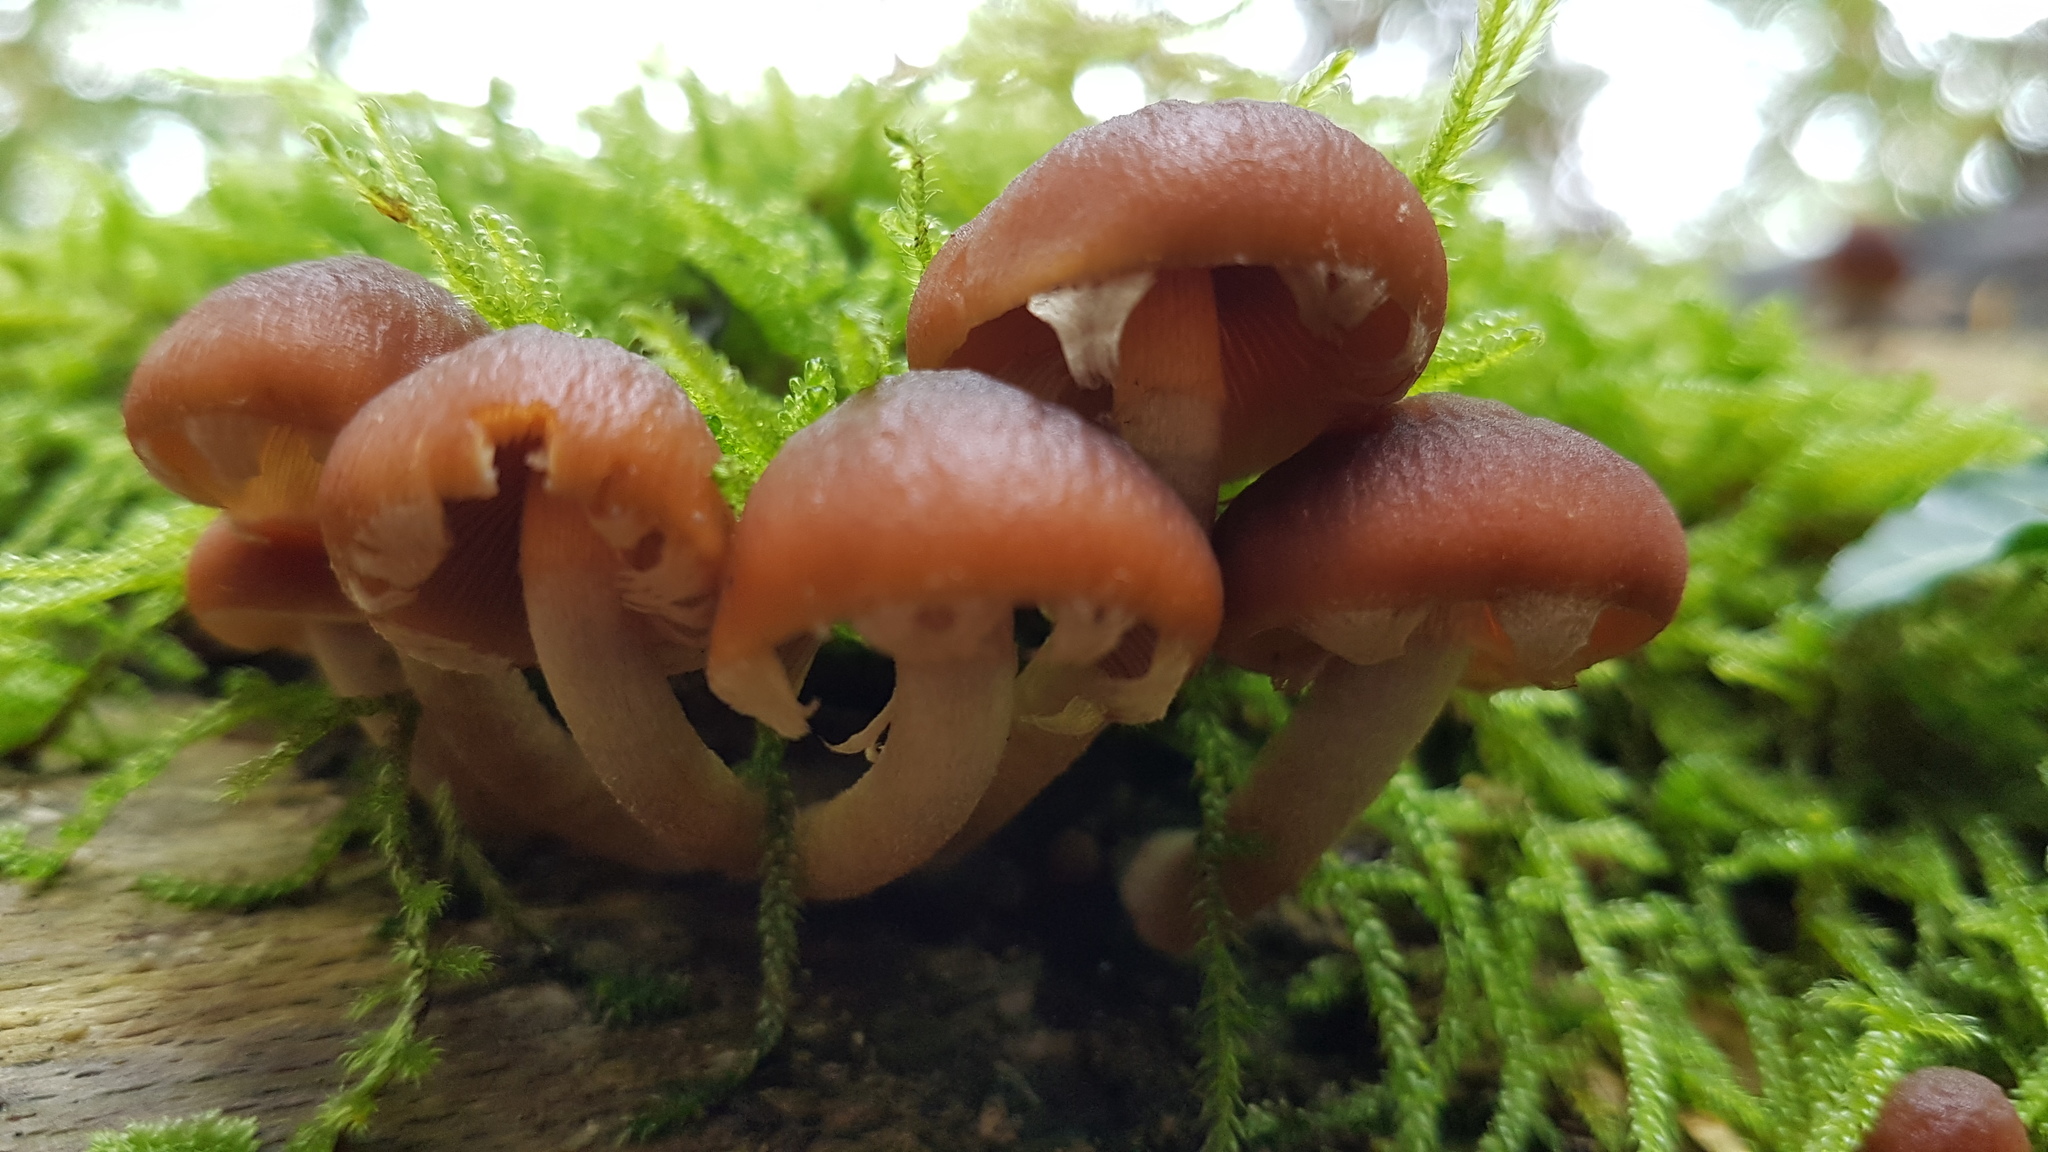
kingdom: Fungi
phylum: Basidiomycota
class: Agaricomycetes
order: Agaricales
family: Psathyrellaceae
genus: Psathyrella
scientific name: Psathyrella piluliformis
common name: Common stump brittlestem
